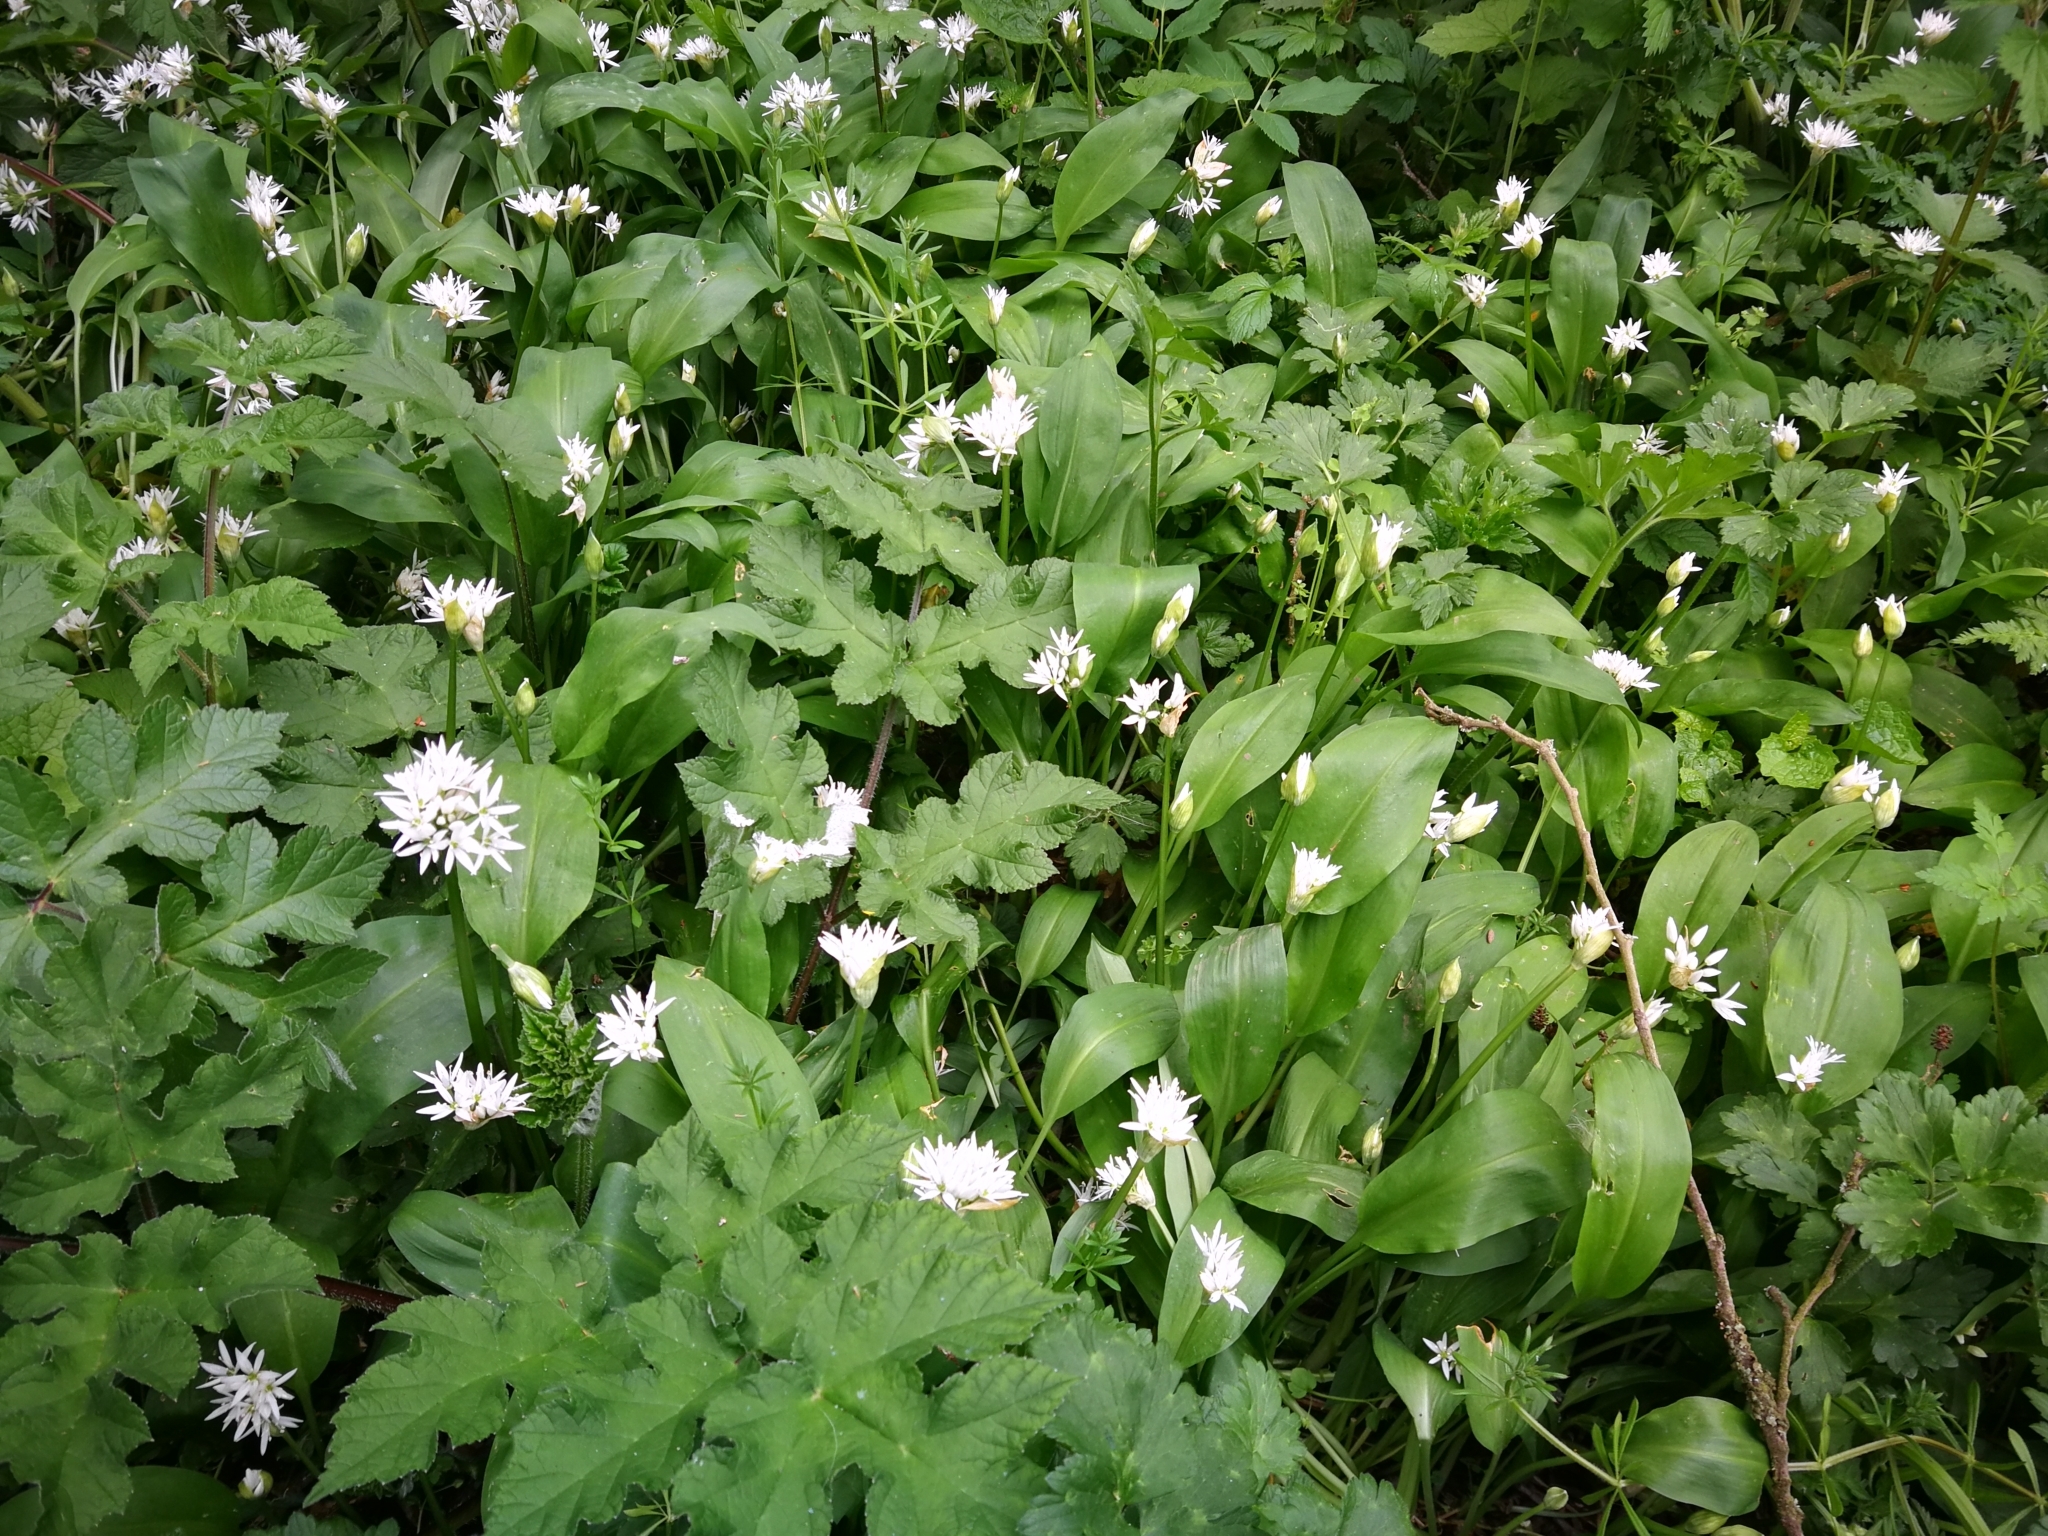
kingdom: Plantae
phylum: Tracheophyta
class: Liliopsida
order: Asparagales
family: Amaryllidaceae
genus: Allium
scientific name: Allium ursinum
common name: Ramsons
